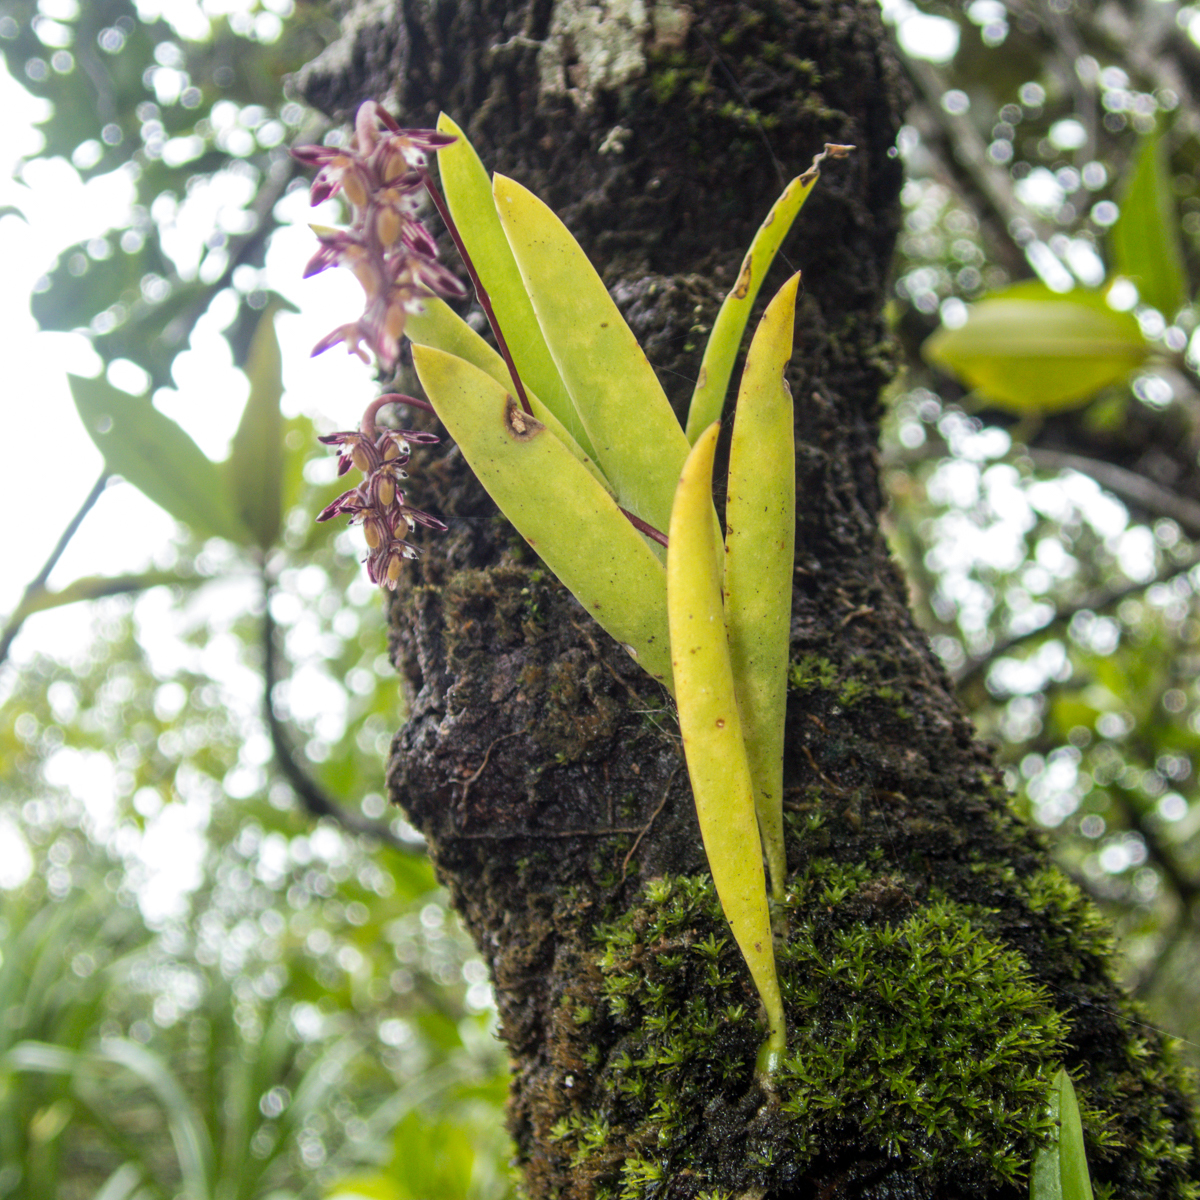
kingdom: Plantae
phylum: Tracheophyta
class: Liliopsida
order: Asparagales
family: Orchidaceae
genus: Bulbophyllum
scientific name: Bulbophyllum alcicorne
